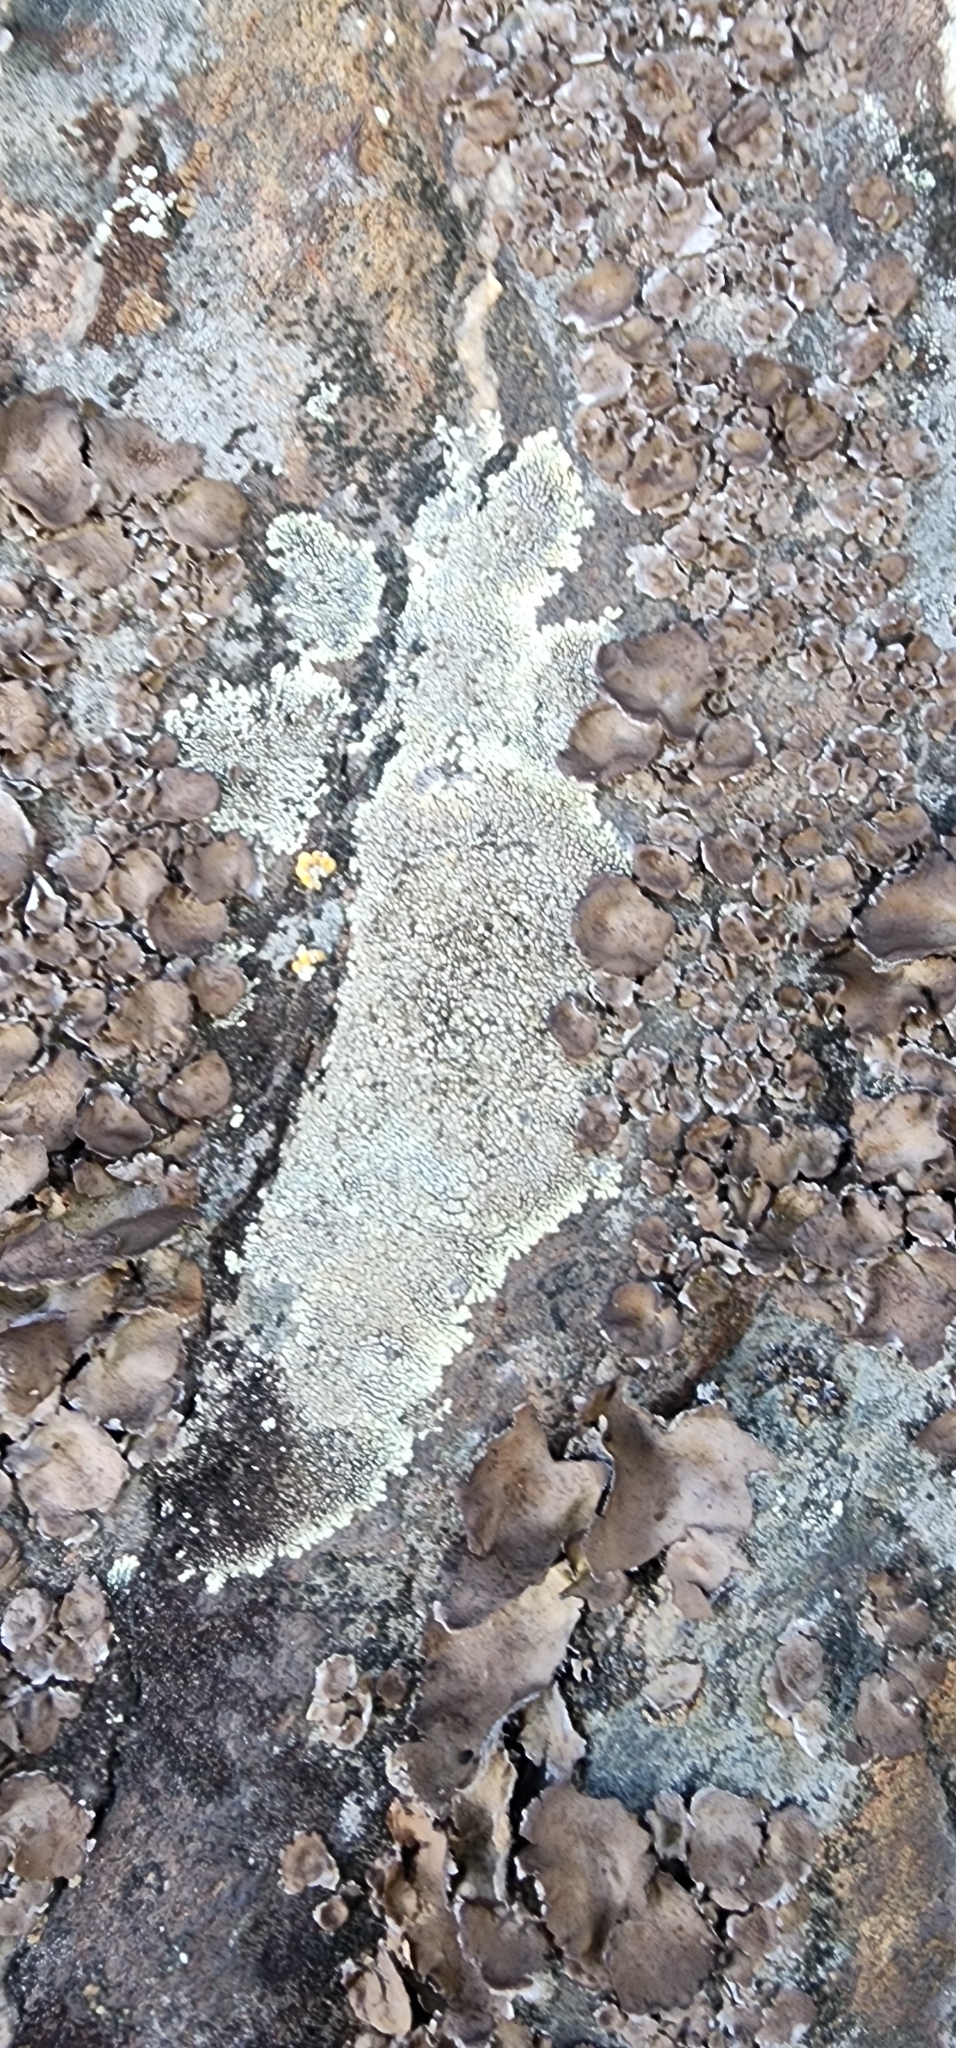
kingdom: Fungi
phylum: Ascomycota
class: Lecanoromycetes
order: Caliciales
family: Caliciaceae
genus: Dimelaena
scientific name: Dimelaena oreina
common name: Golden moonglow lichen
